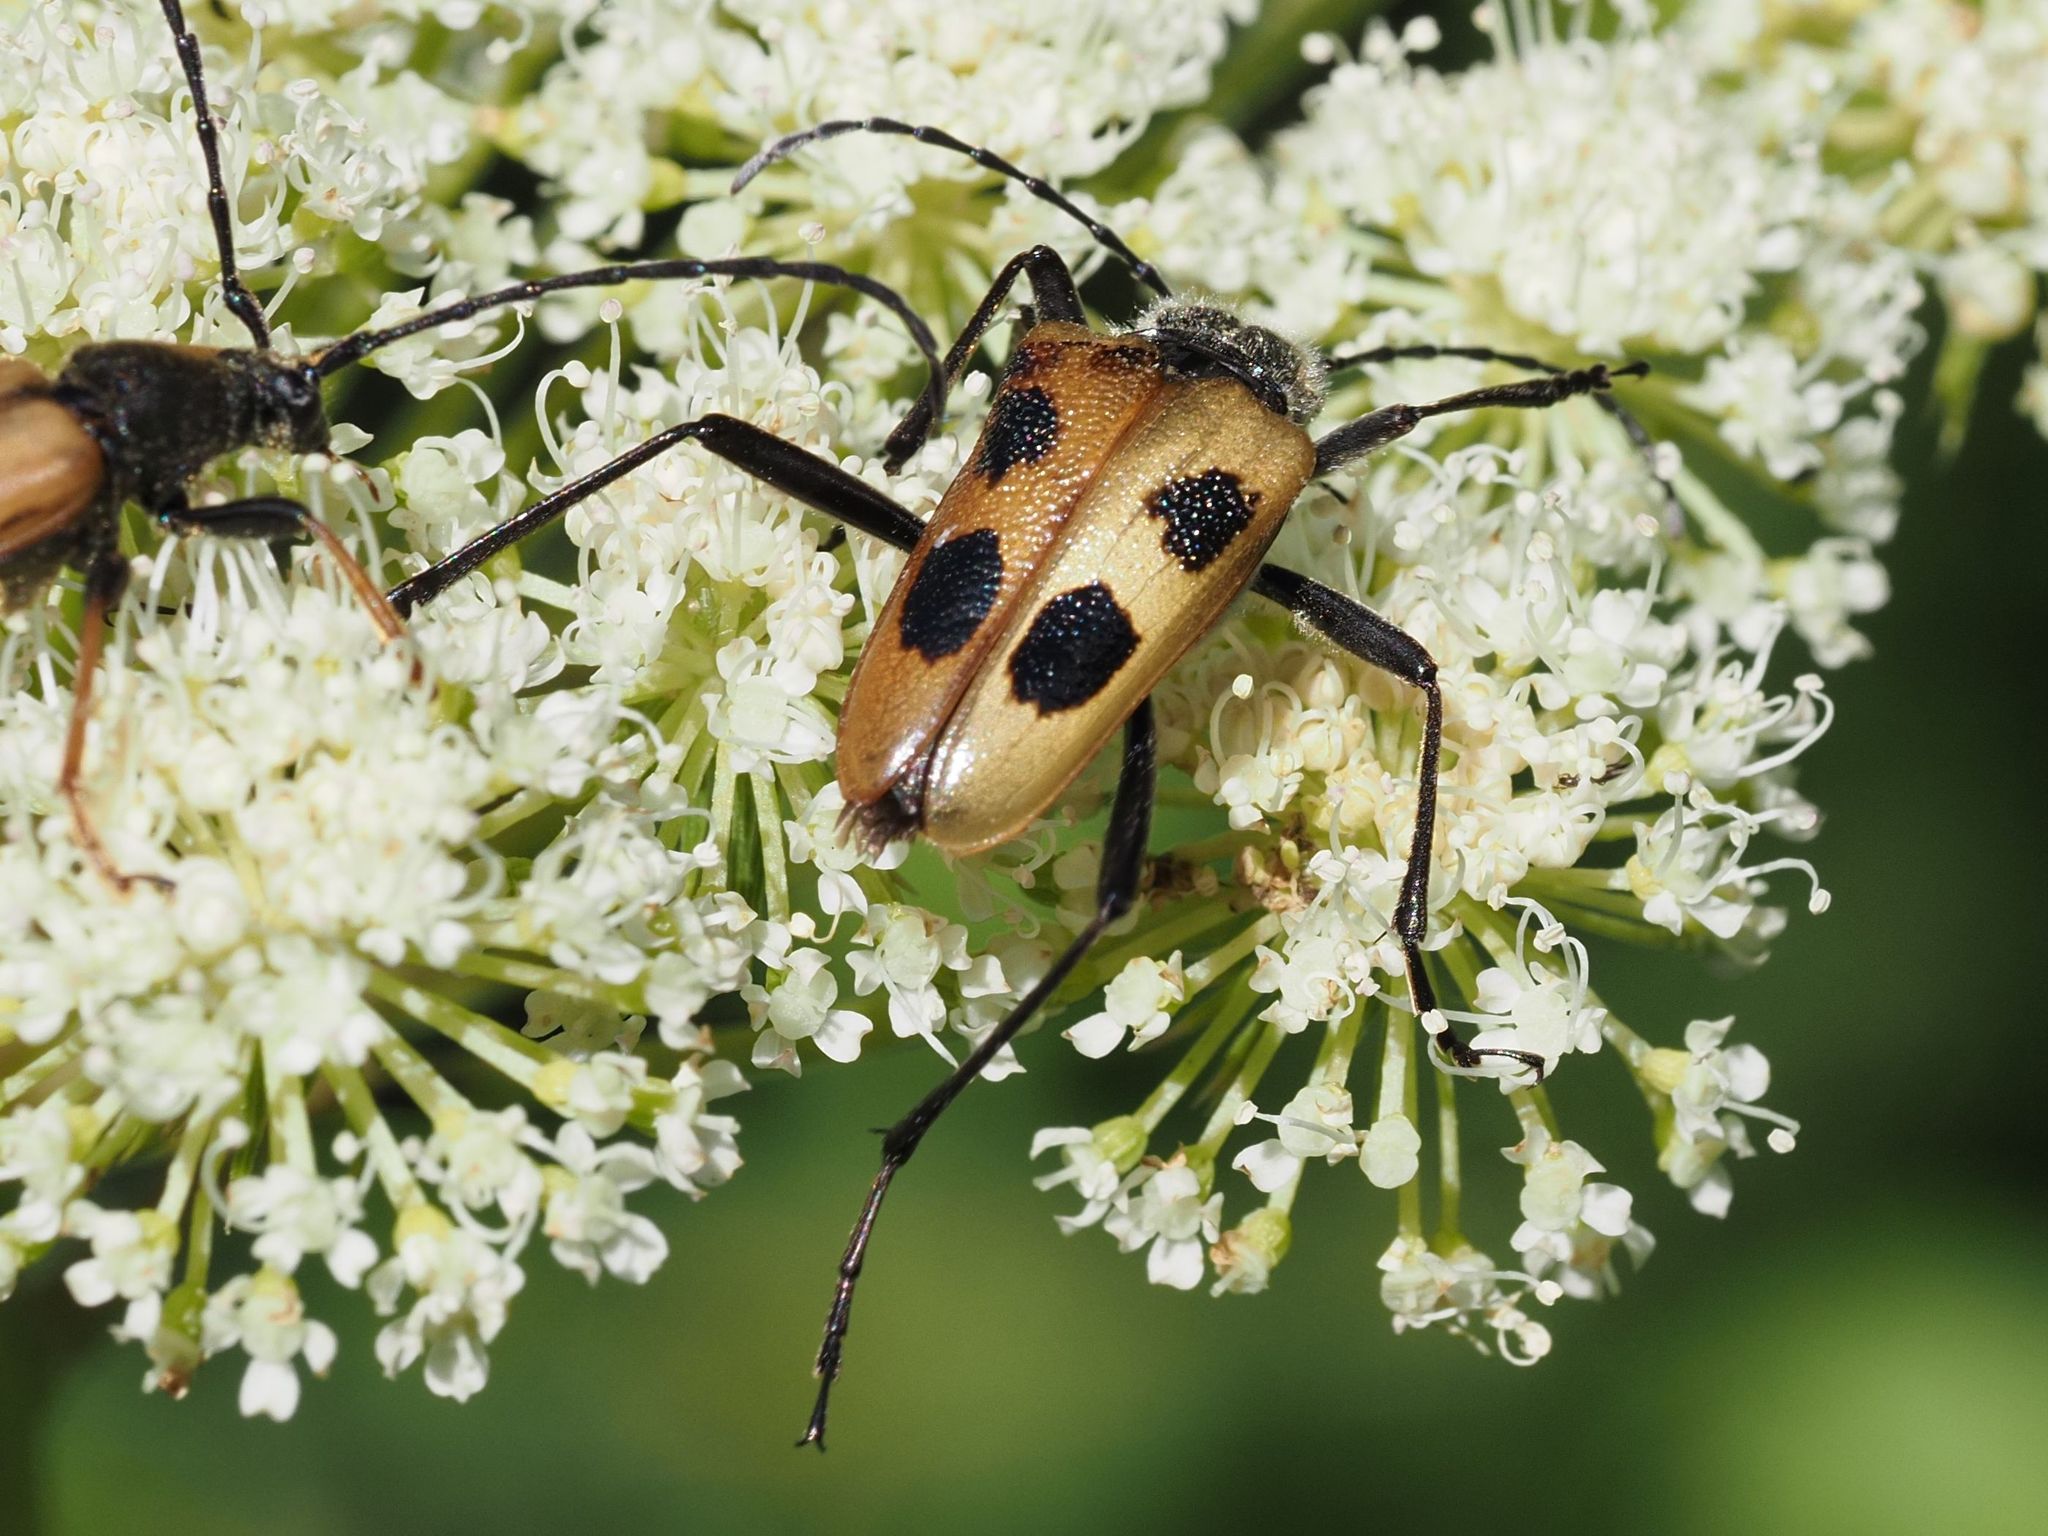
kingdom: Animalia
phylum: Arthropoda
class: Insecta
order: Coleoptera
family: Cerambycidae
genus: Pachyta
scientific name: Pachyta quadrimaculata
